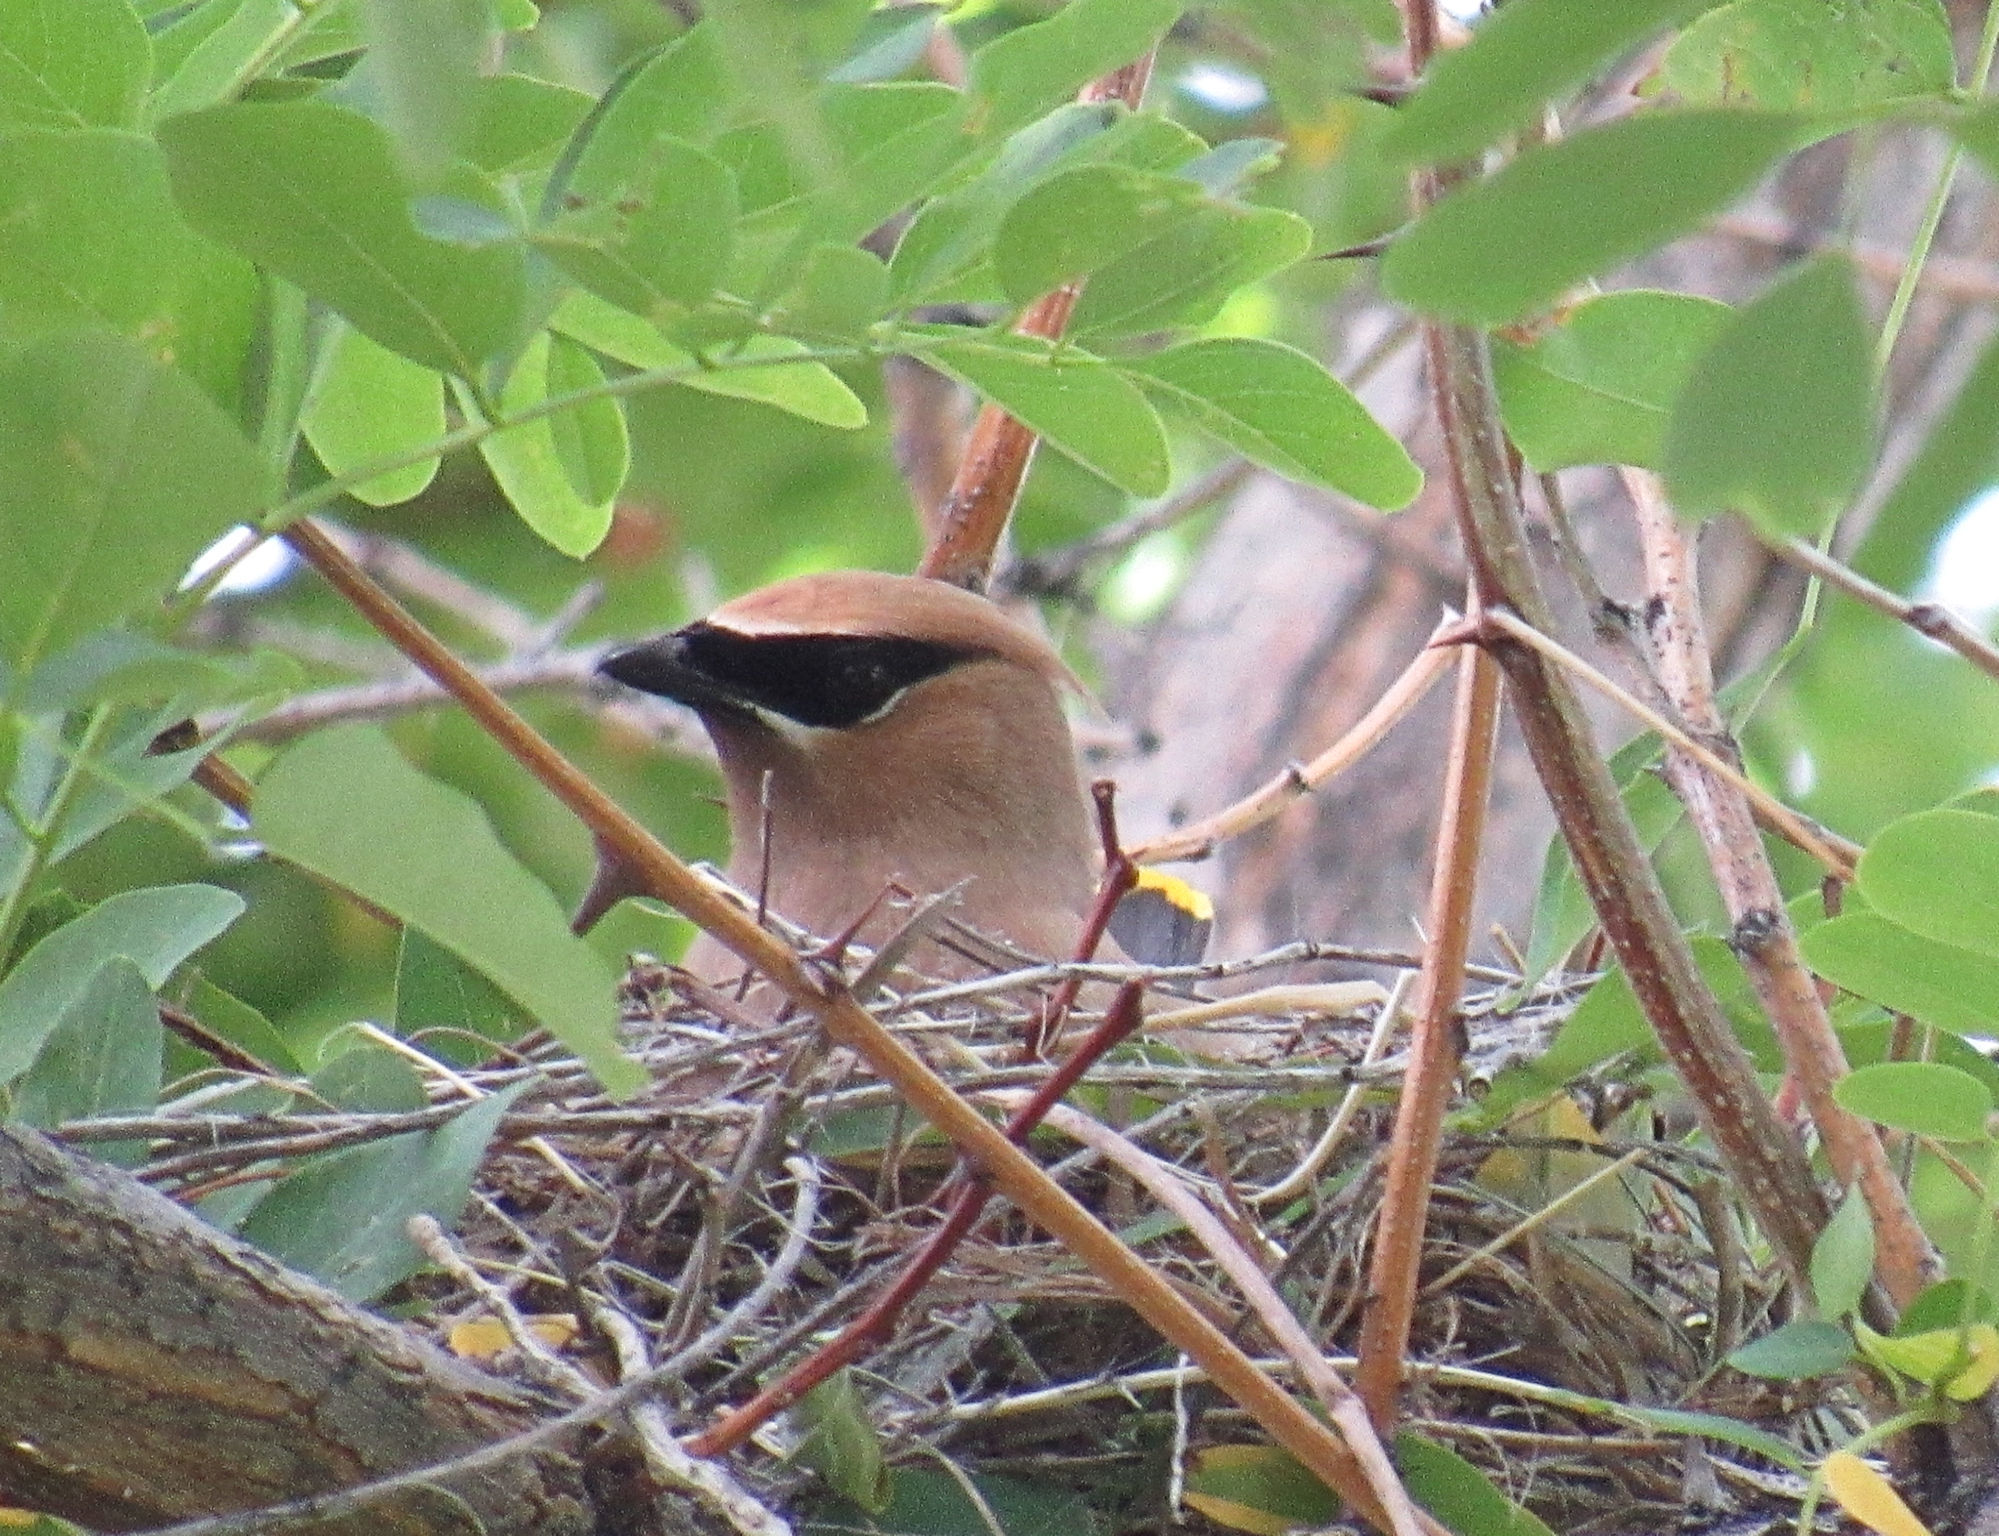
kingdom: Animalia
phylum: Chordata
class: Aves
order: Passeriformes
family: Bombycillidae
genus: Bombycilla
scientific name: Bombycilla cedrorum
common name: Cedar waxwing
